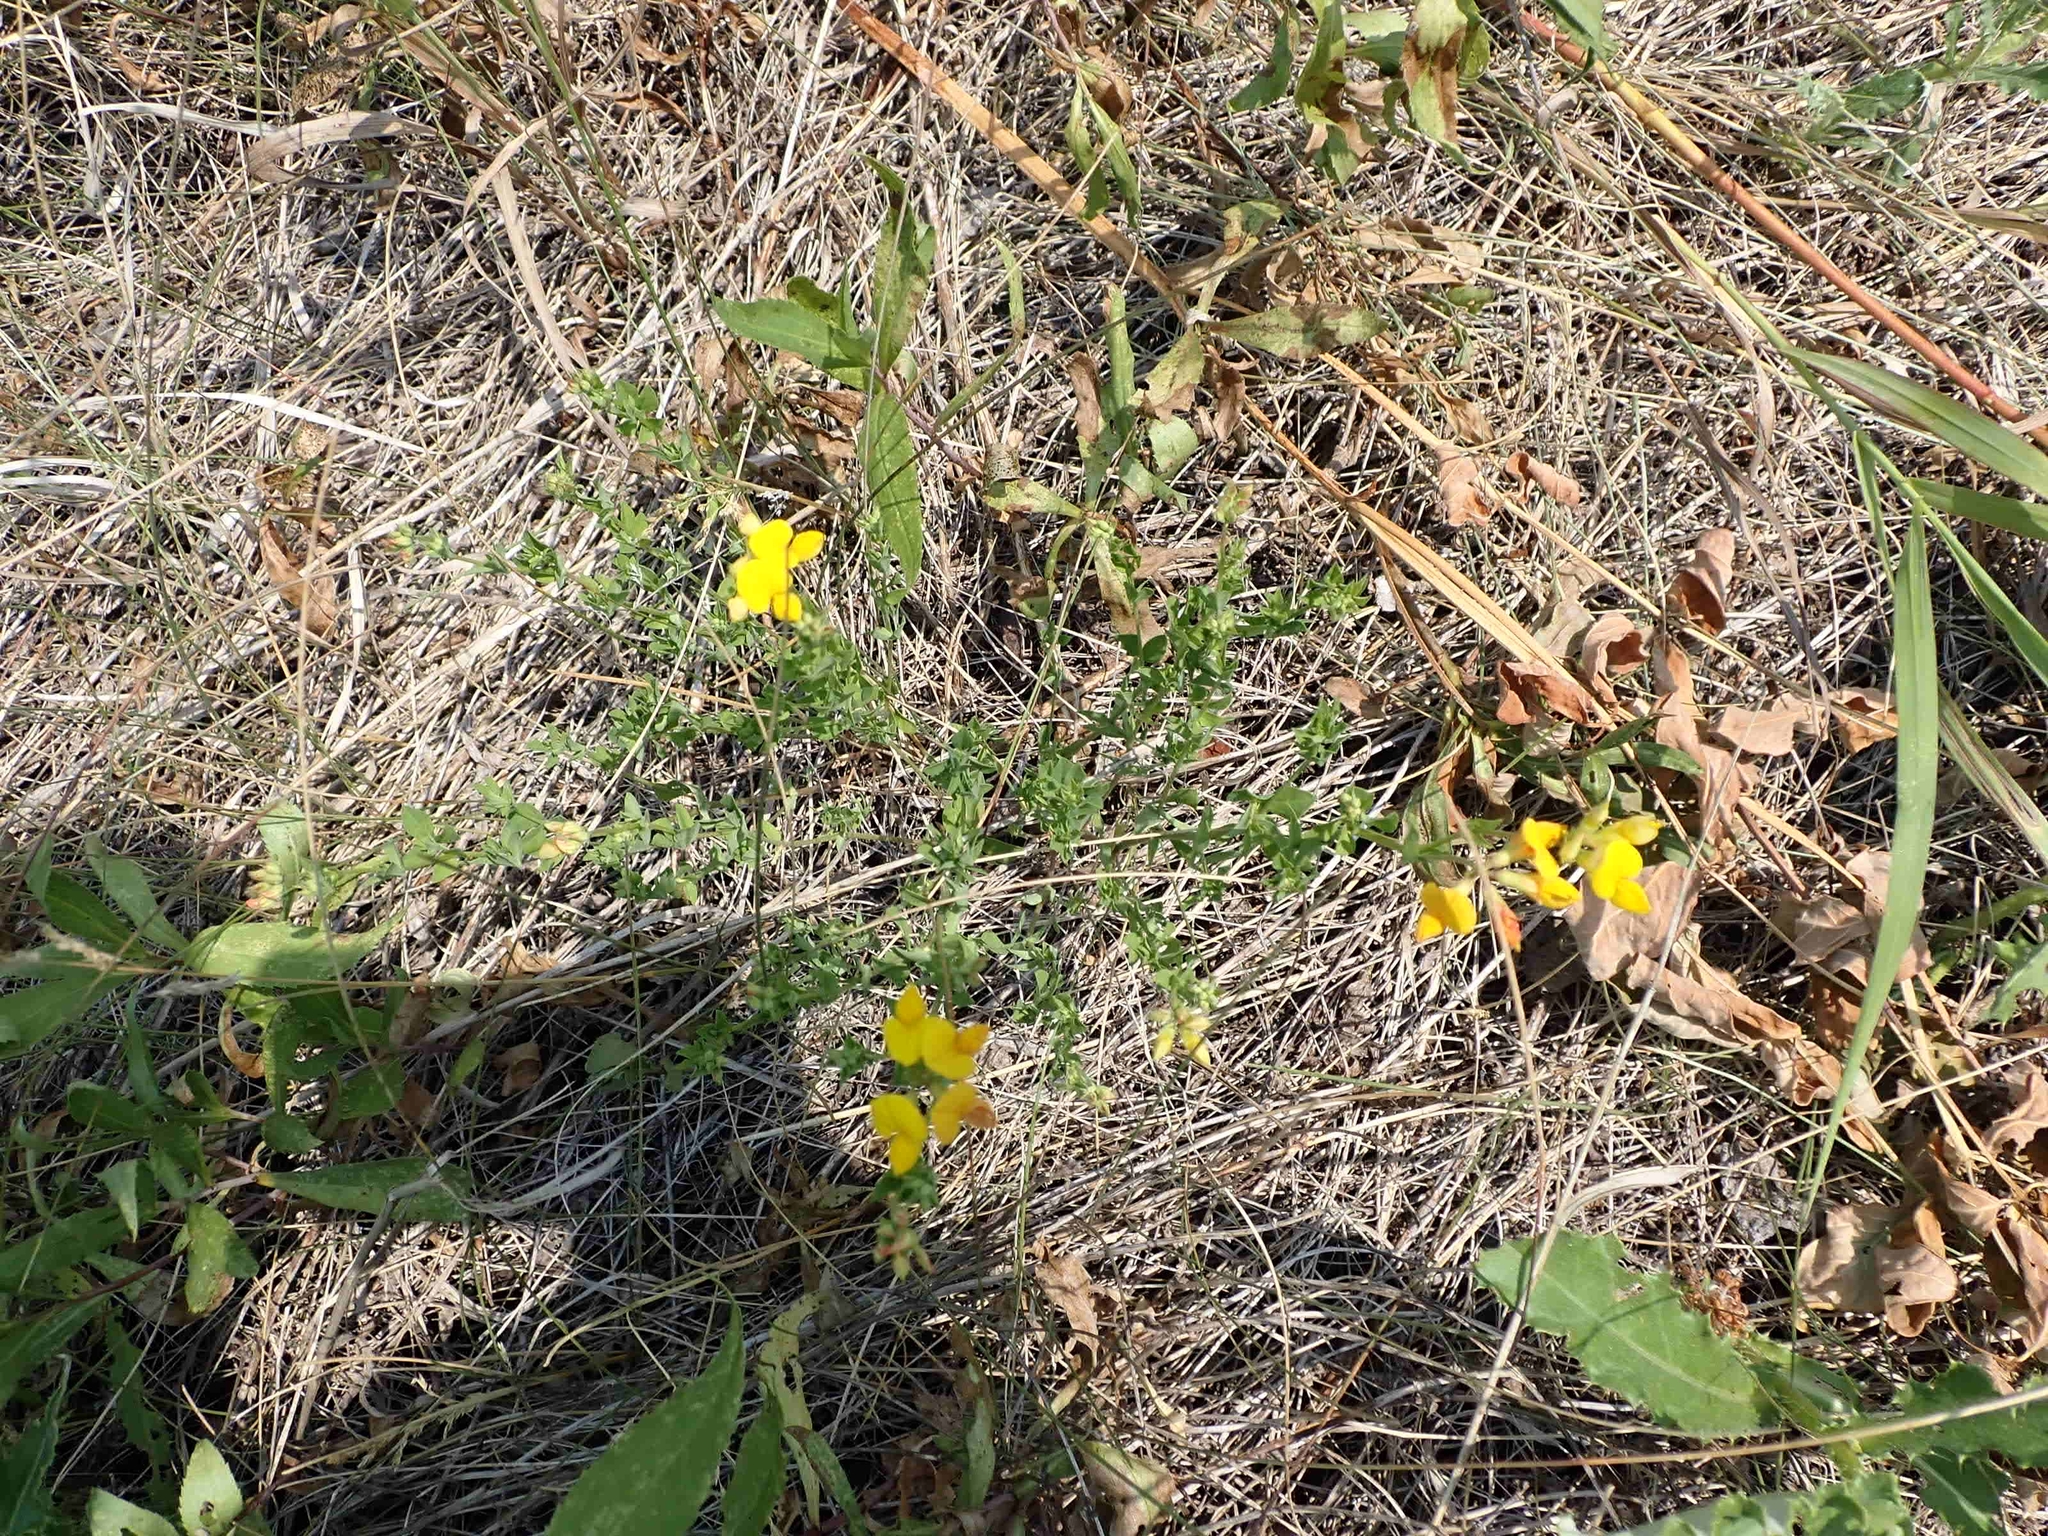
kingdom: Plantae
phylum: Tracheophyta
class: Magnoliopsida
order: Fabales
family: Fabaceae
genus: Lotus
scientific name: Lotus corniculatus
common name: Common bird's-foot-trefoil
